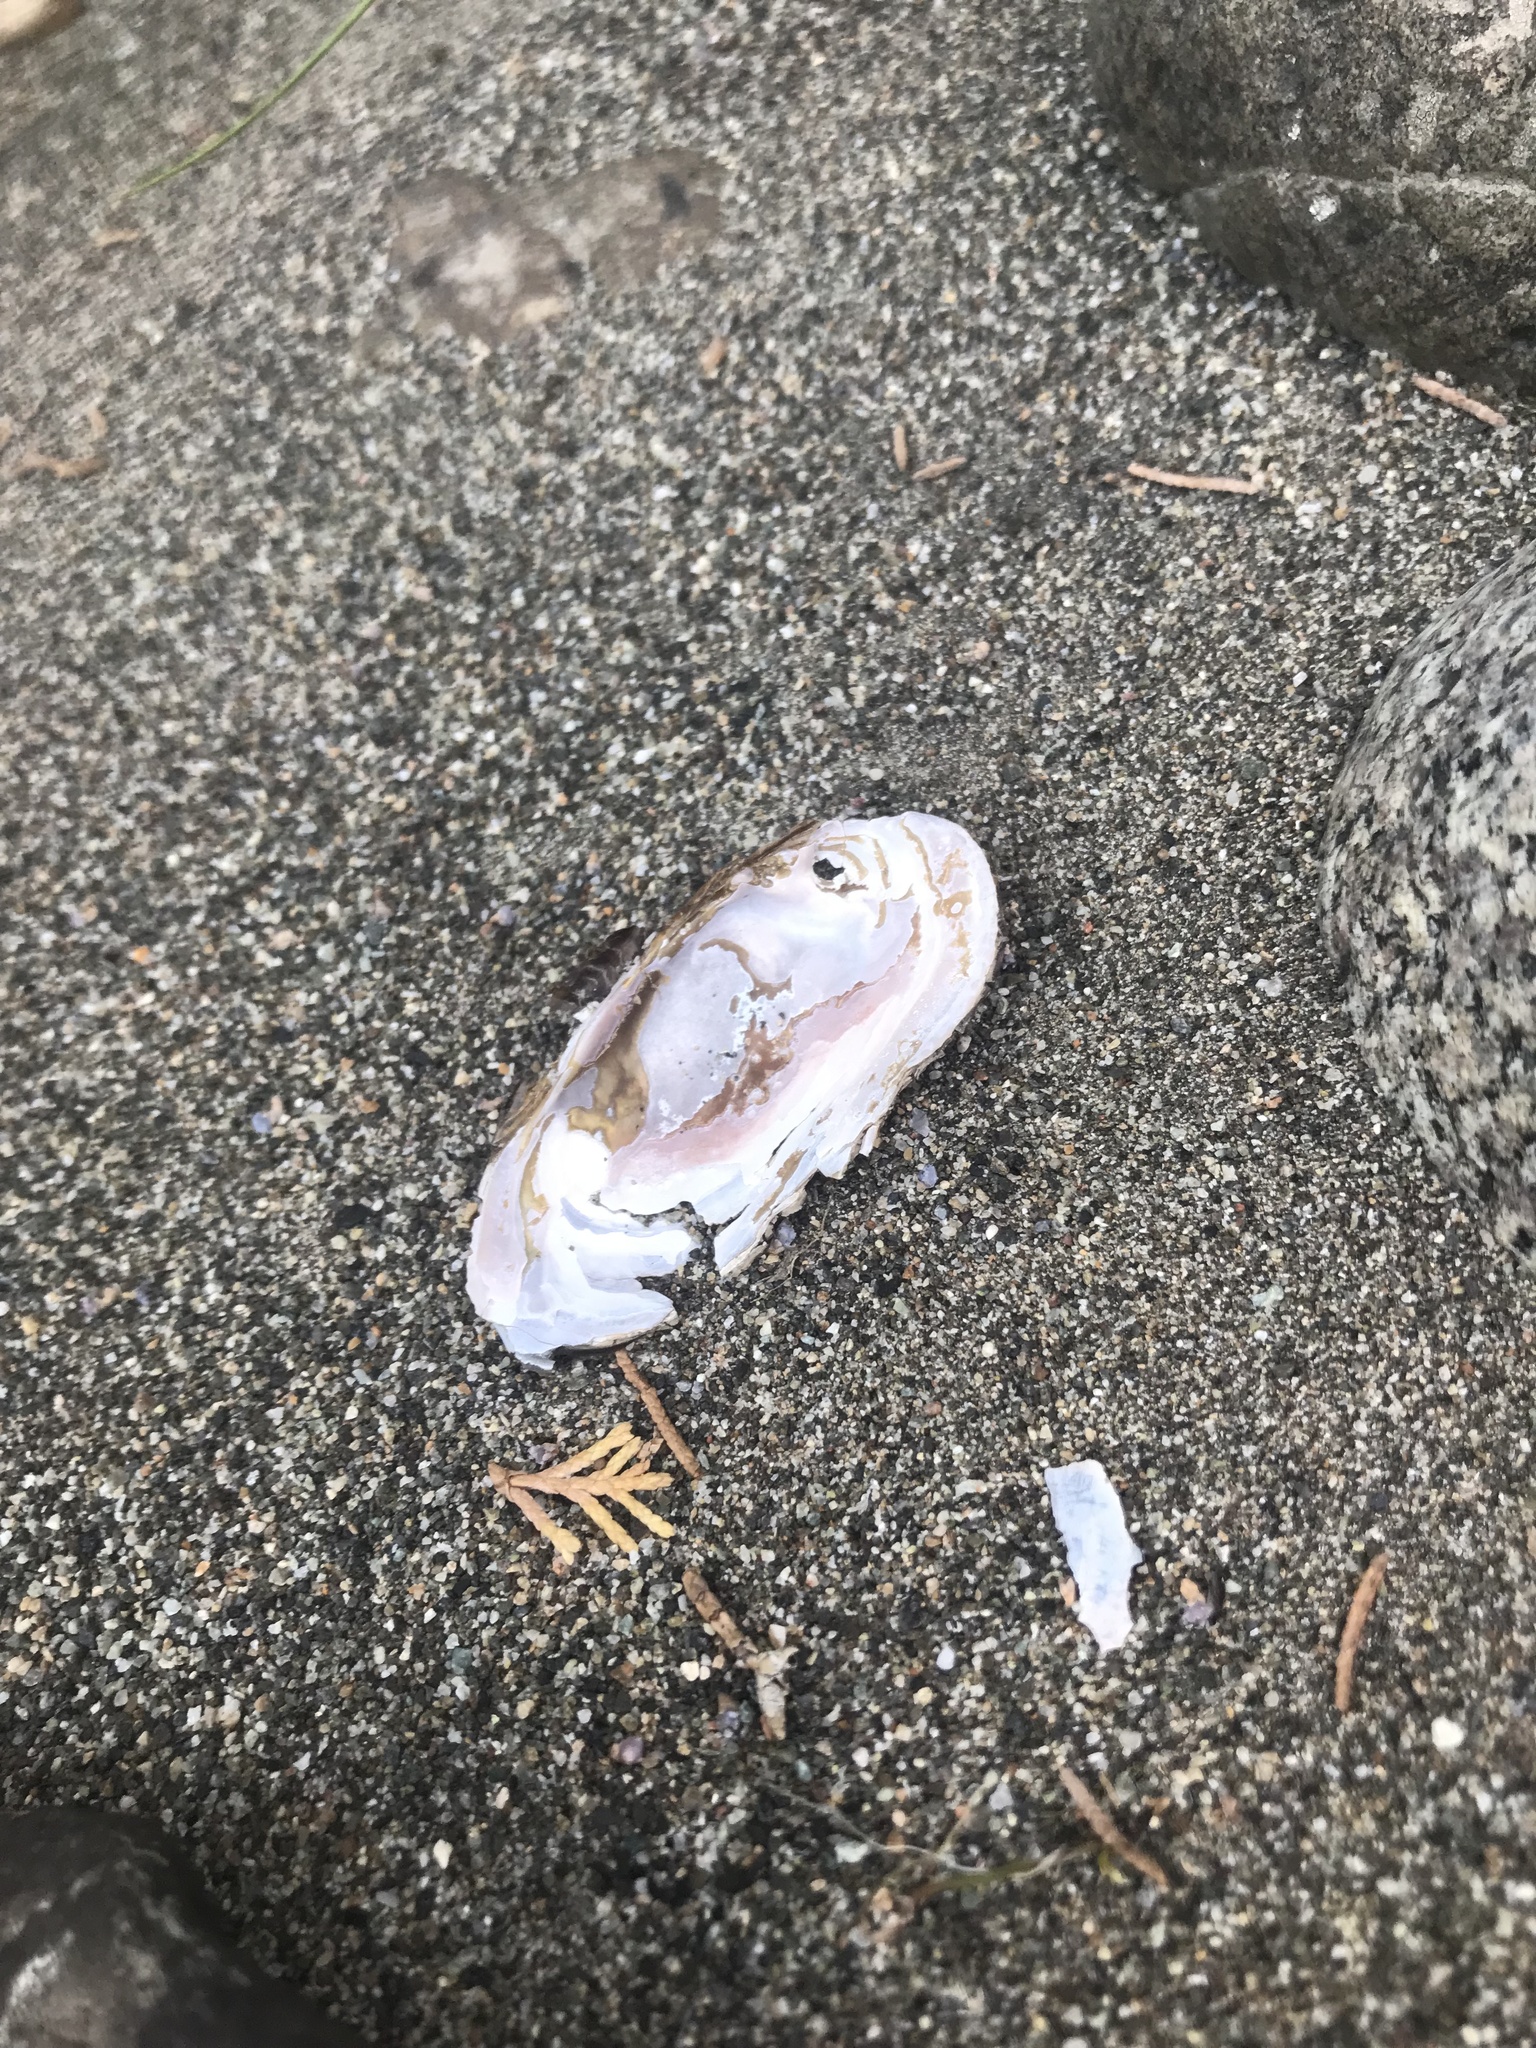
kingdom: Animalia
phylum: Mollusca
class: Bivalvia
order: Unionida
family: Margaritiferidae
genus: Margaritifera
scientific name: Margaritifera falcata
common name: Western pearlshell
